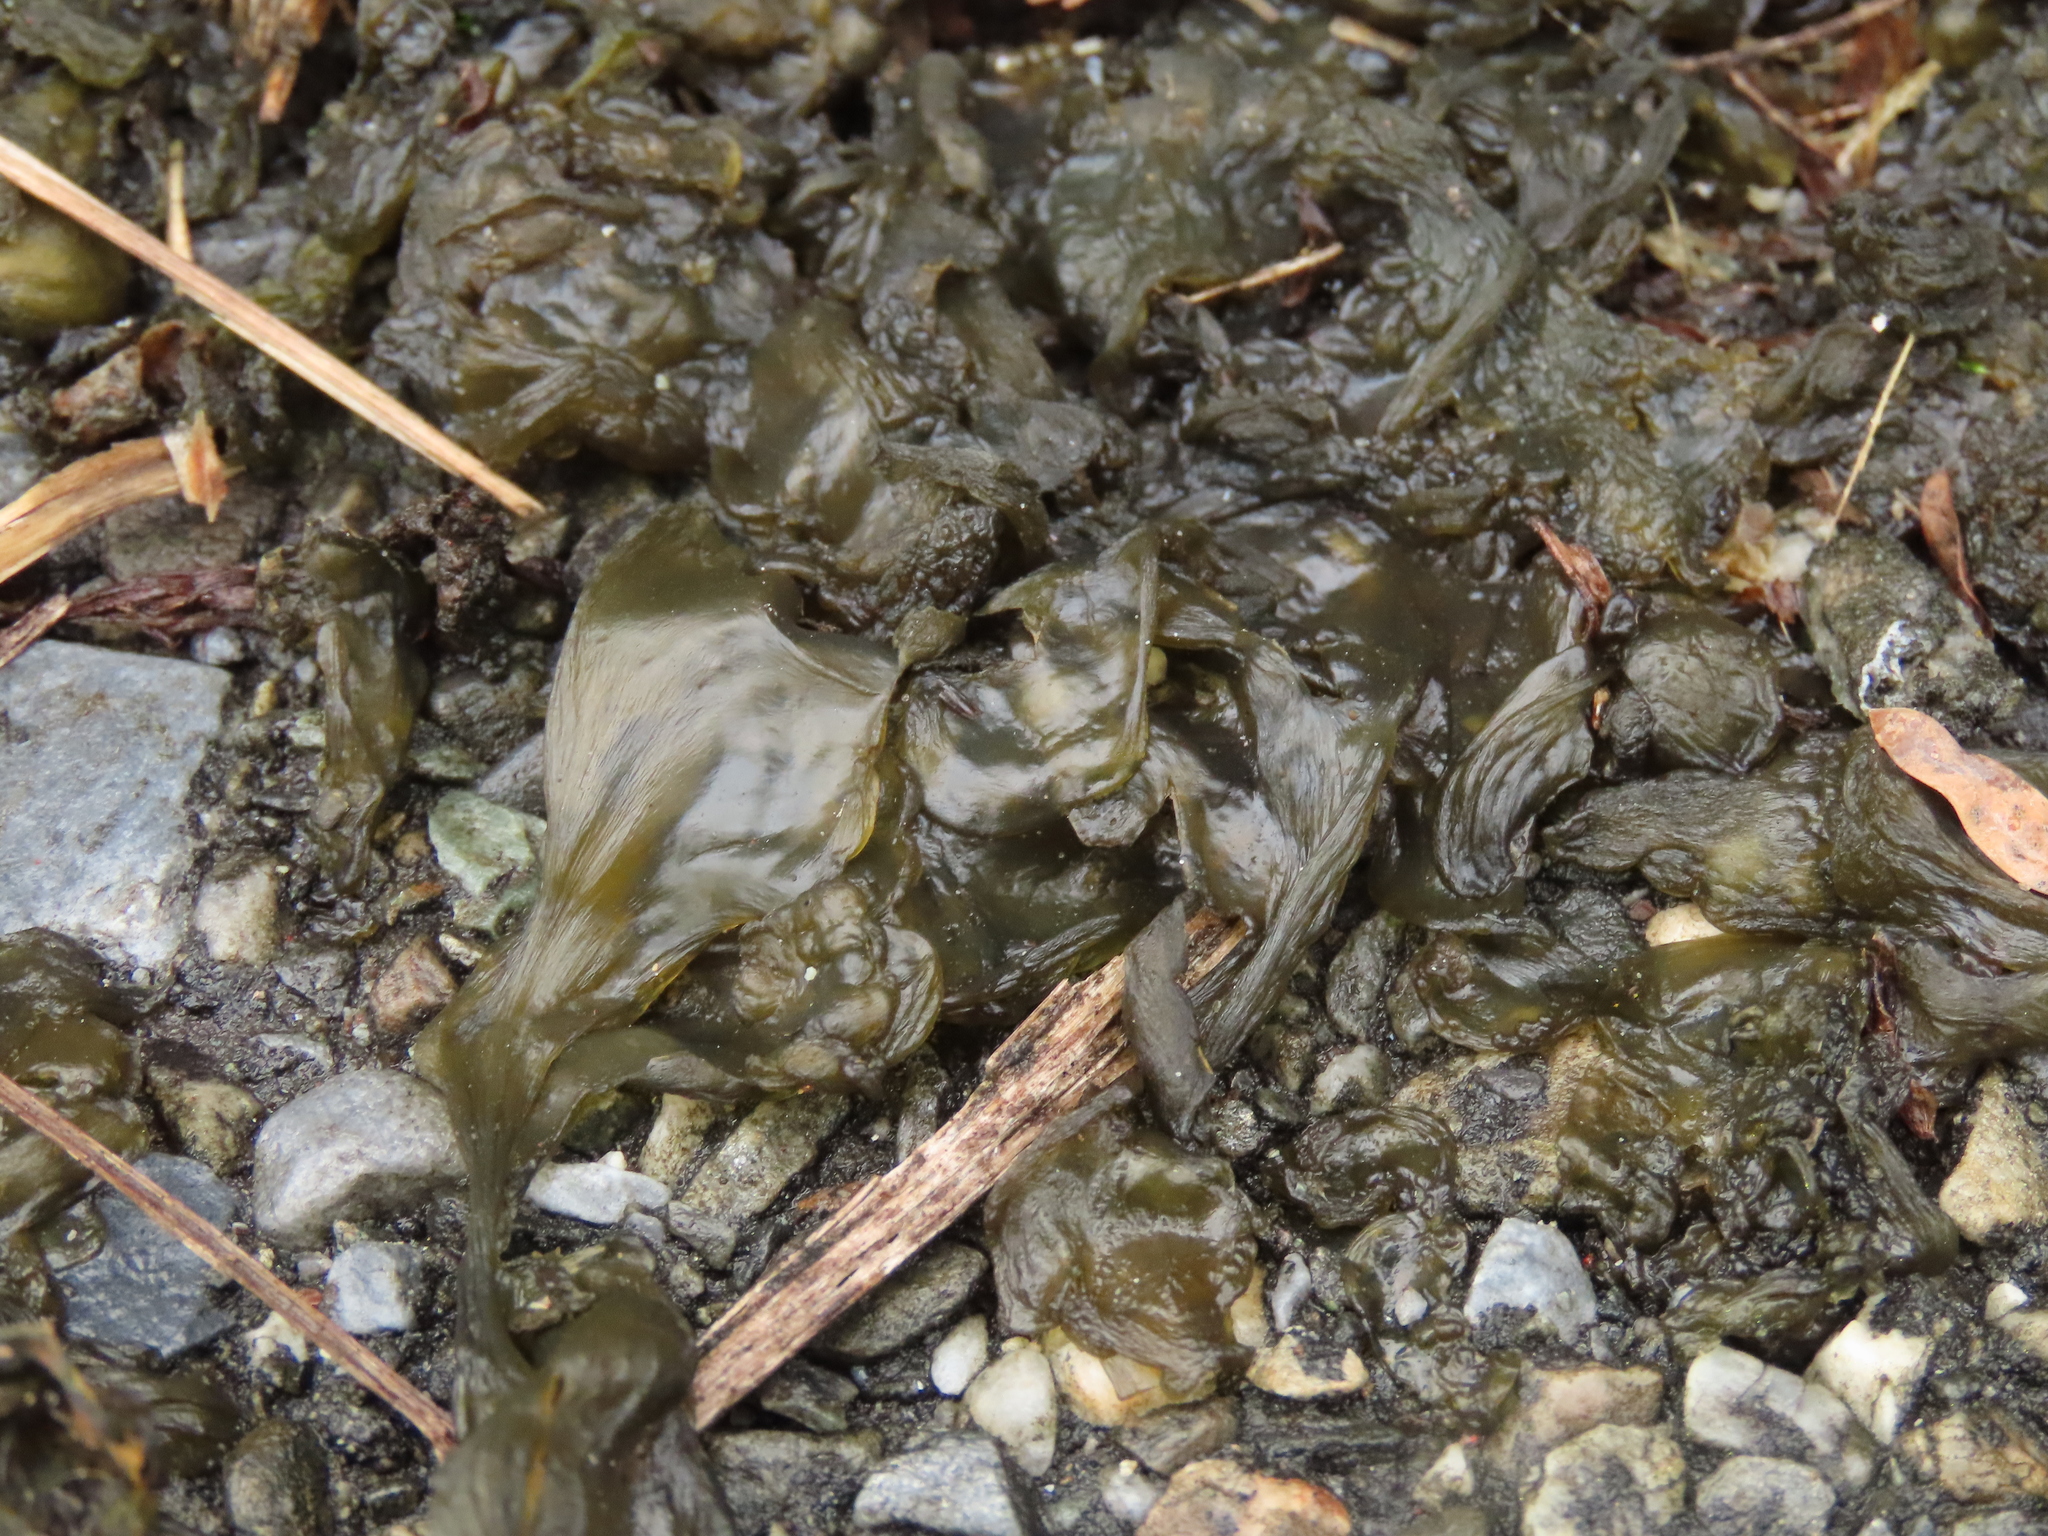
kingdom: Bacteria
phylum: Cyanobacteria
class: Cyanobacteriia
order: Cyanobacteriales
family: Nostocaceae
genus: Nostoc
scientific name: Nostoc commune
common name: Star jelly
